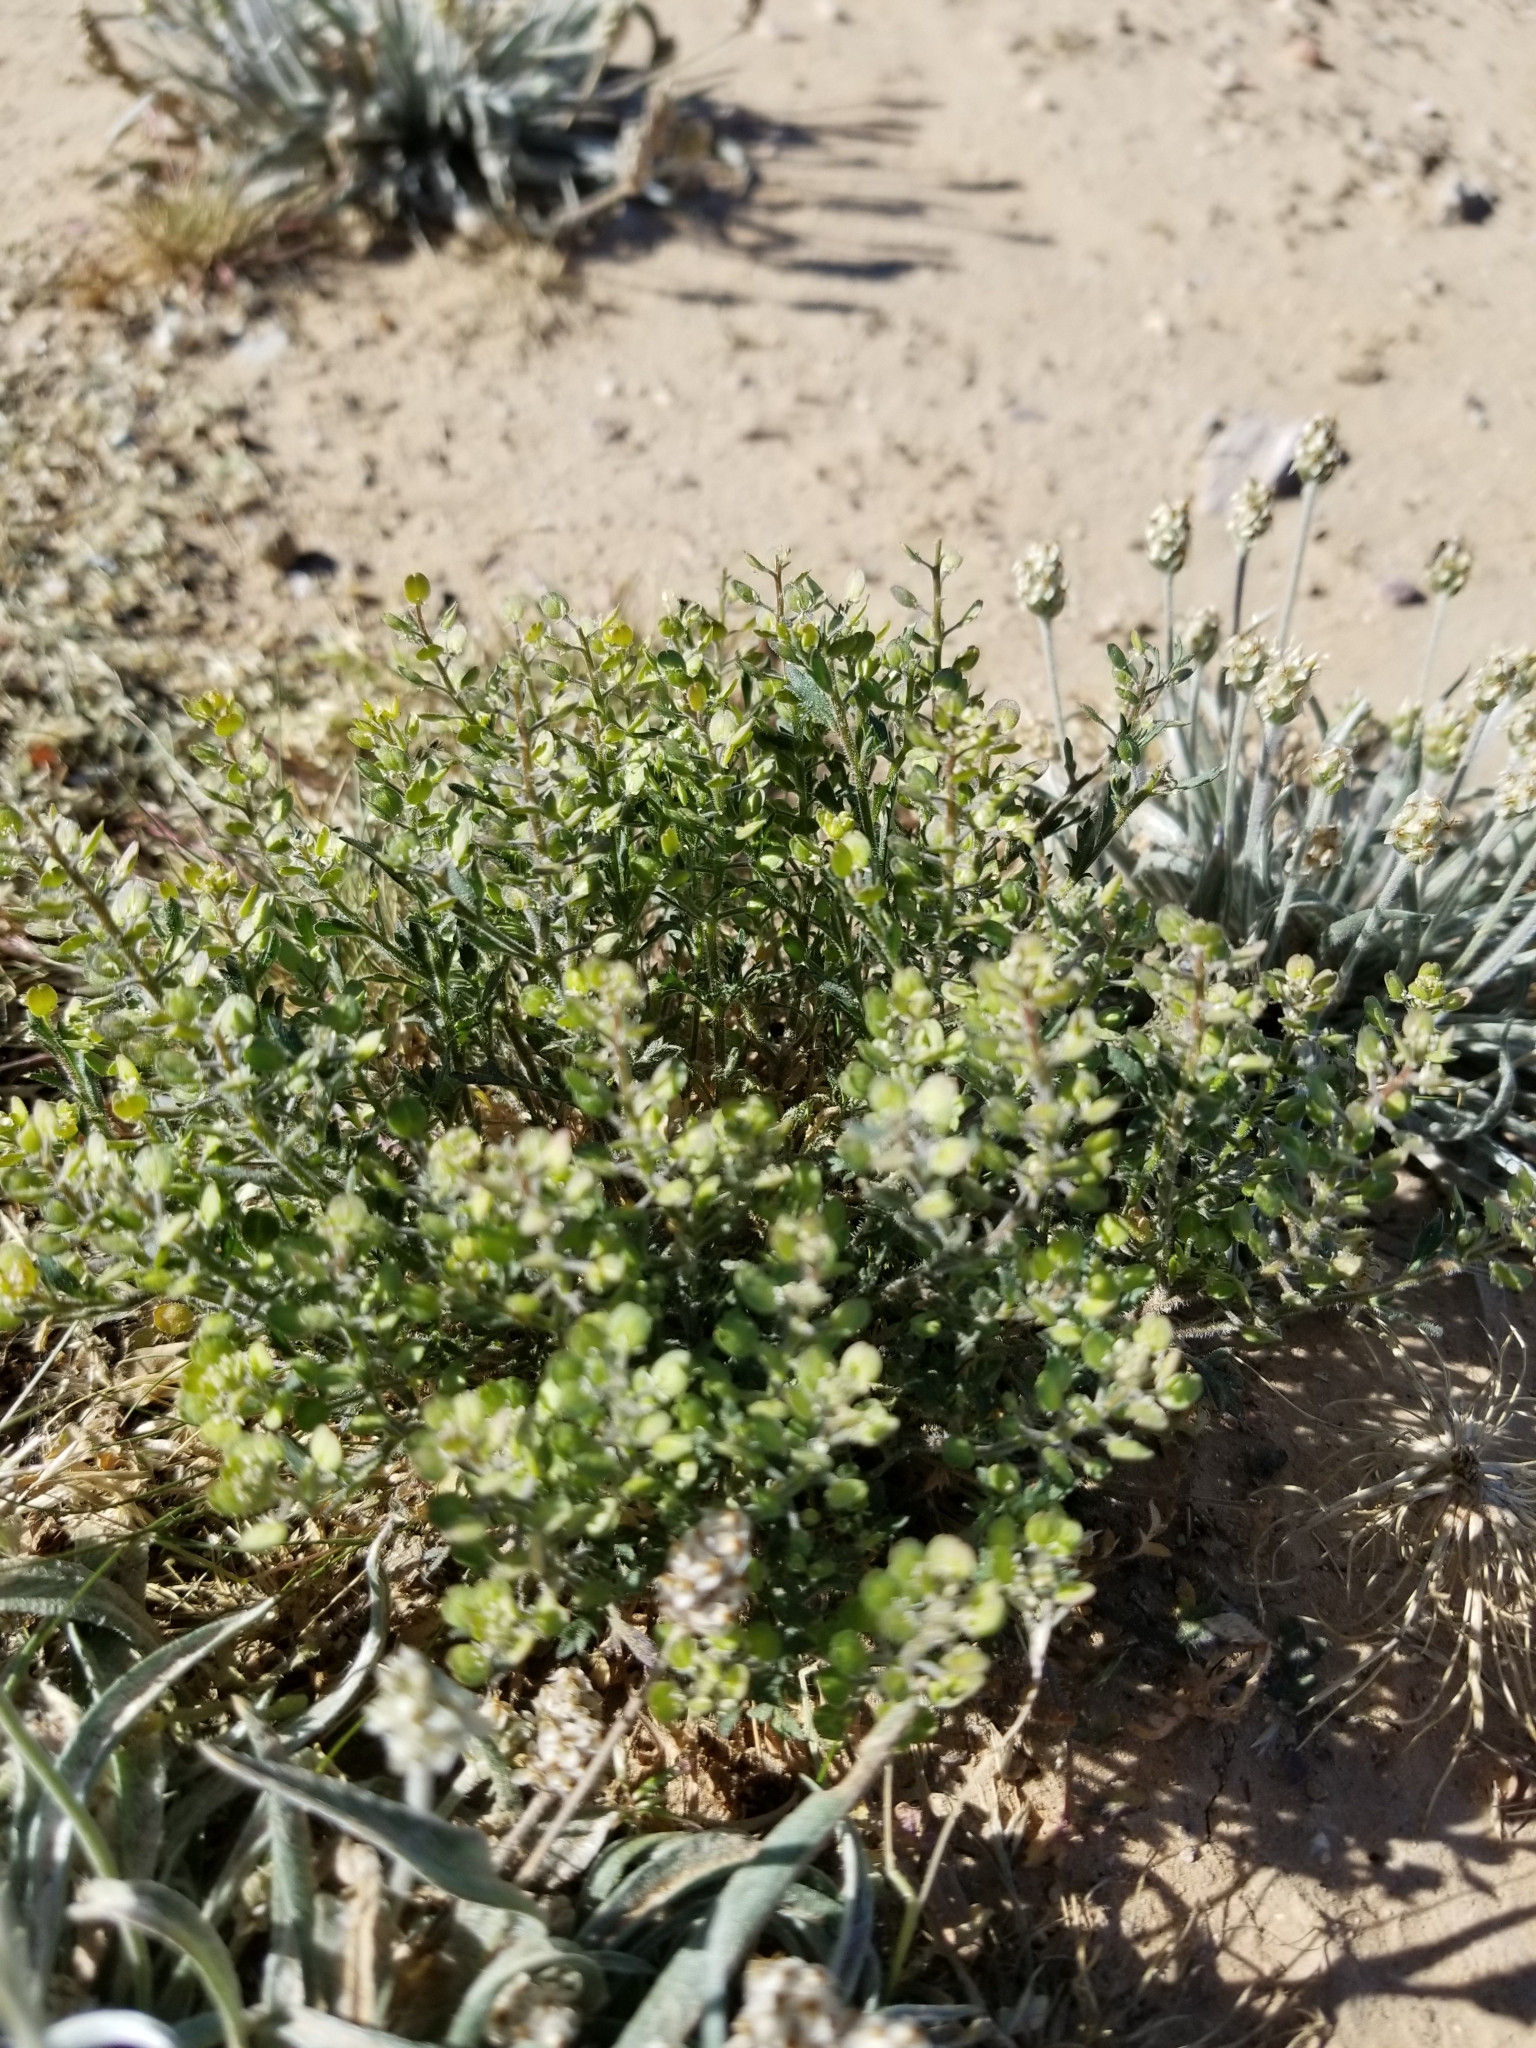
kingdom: Plantae
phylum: Tracheophyta
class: Magnoliopsida
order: Brassicales
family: Brassicaceae
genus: Lepidium
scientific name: Lepidium lasiocarpum
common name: Hairy-pod pepperwort
